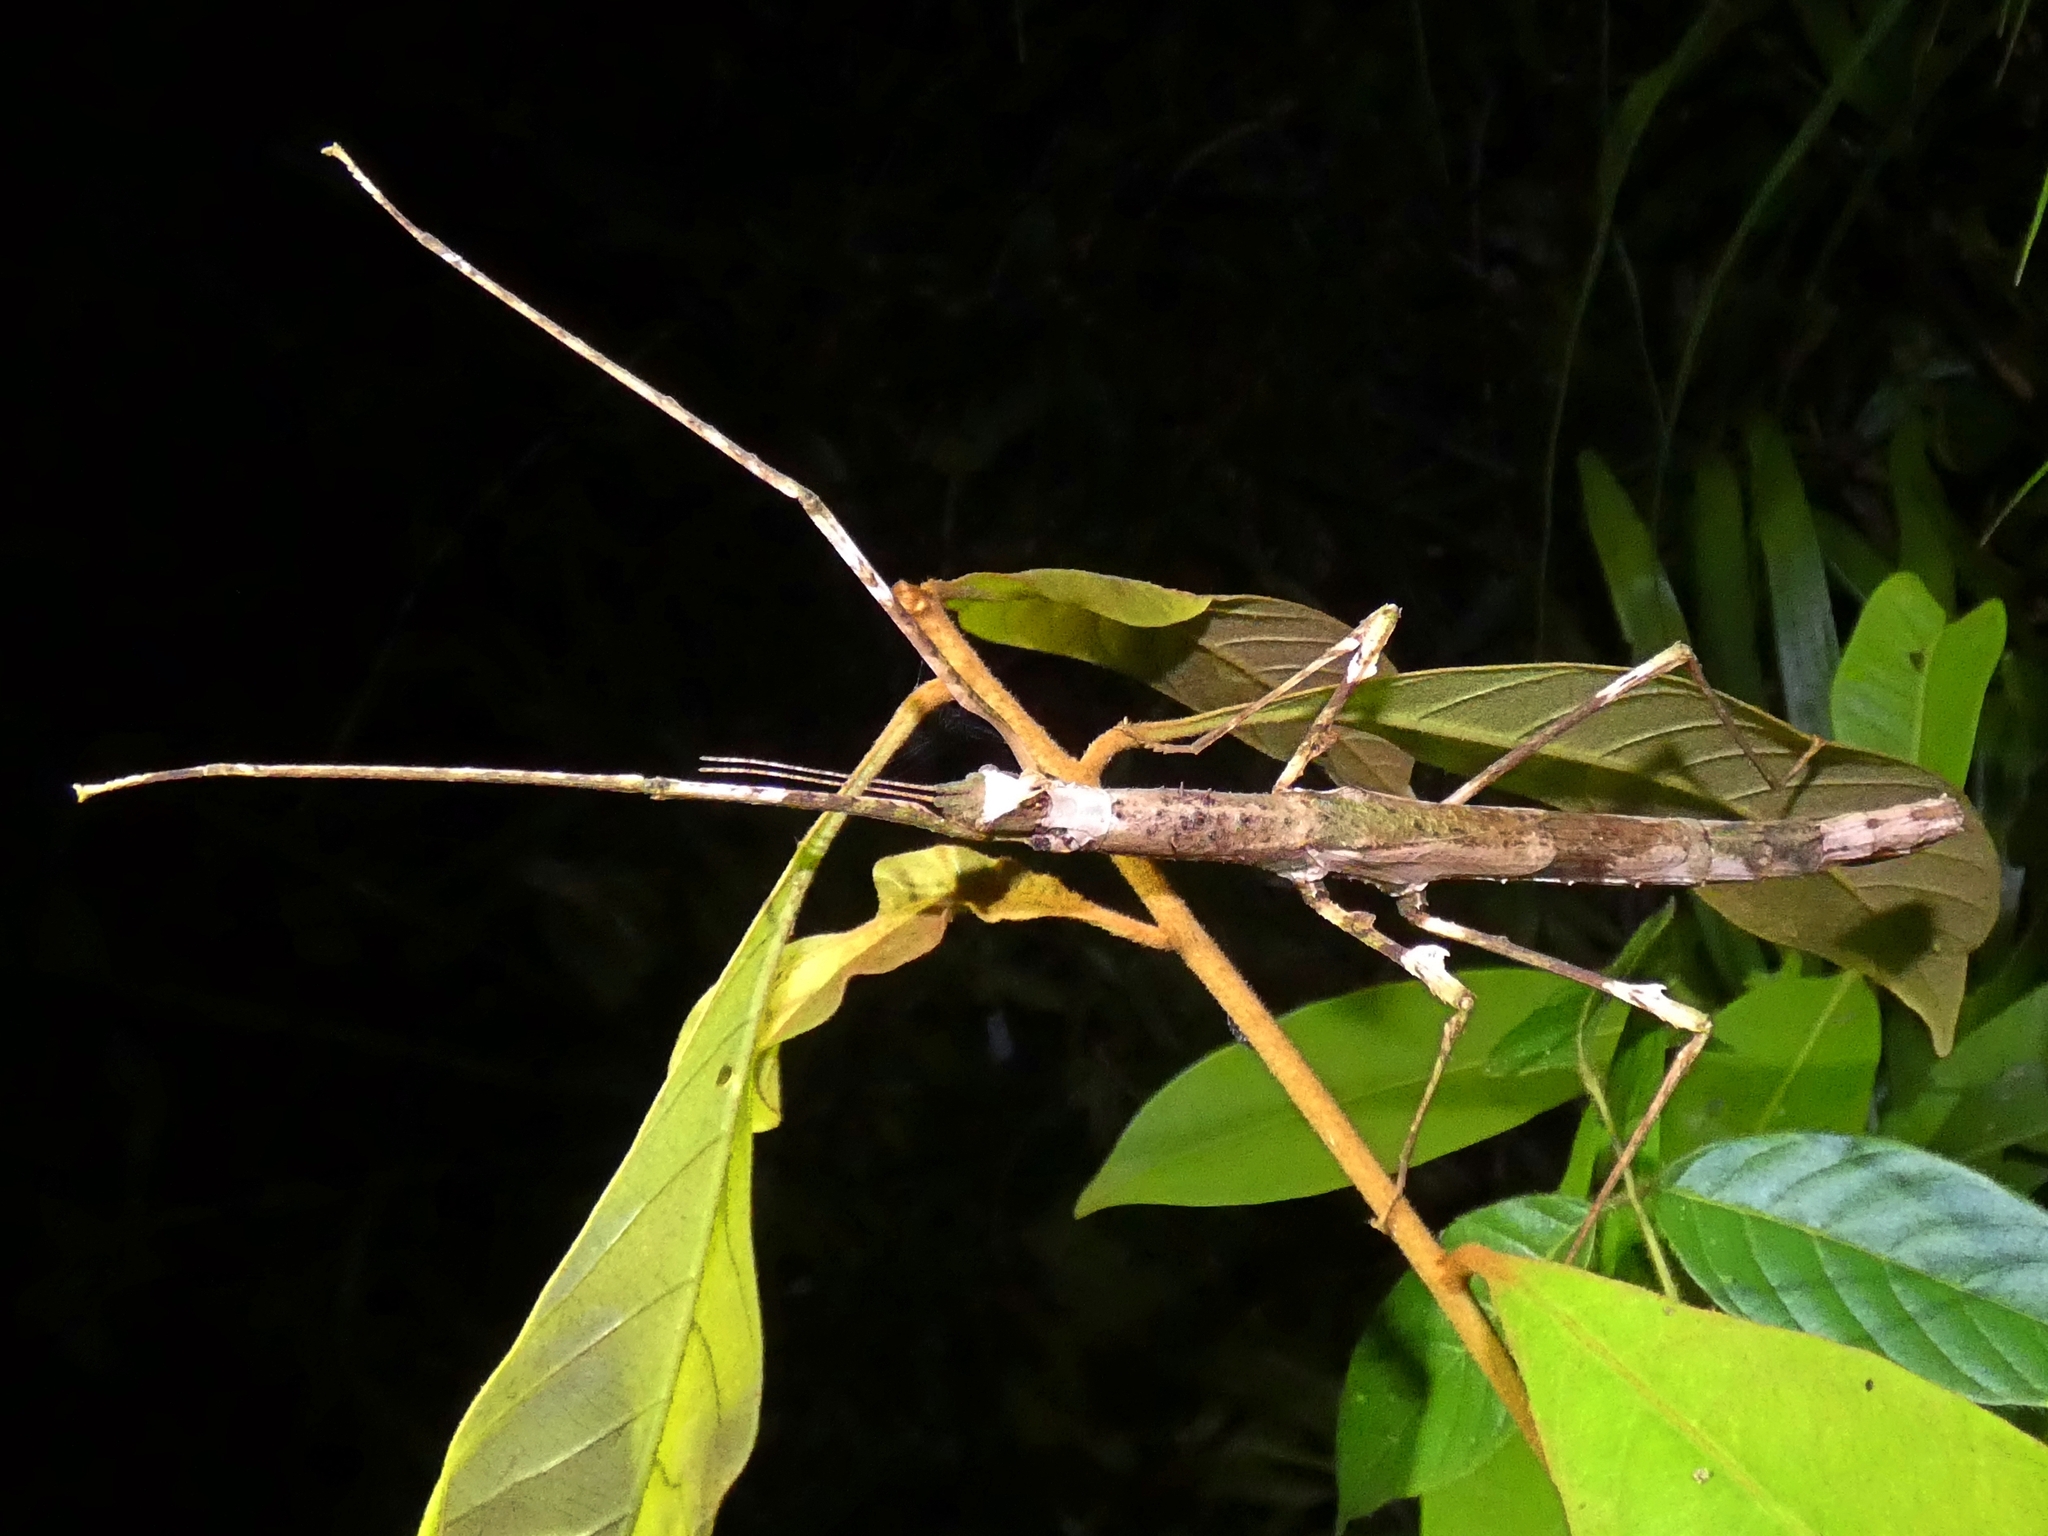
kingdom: Animalia
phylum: Arthropoda
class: Insecta
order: Phasmida
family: Phasmatidae
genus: Onchestus
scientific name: Onchestus rentzi
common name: Rentz's stick-insect
